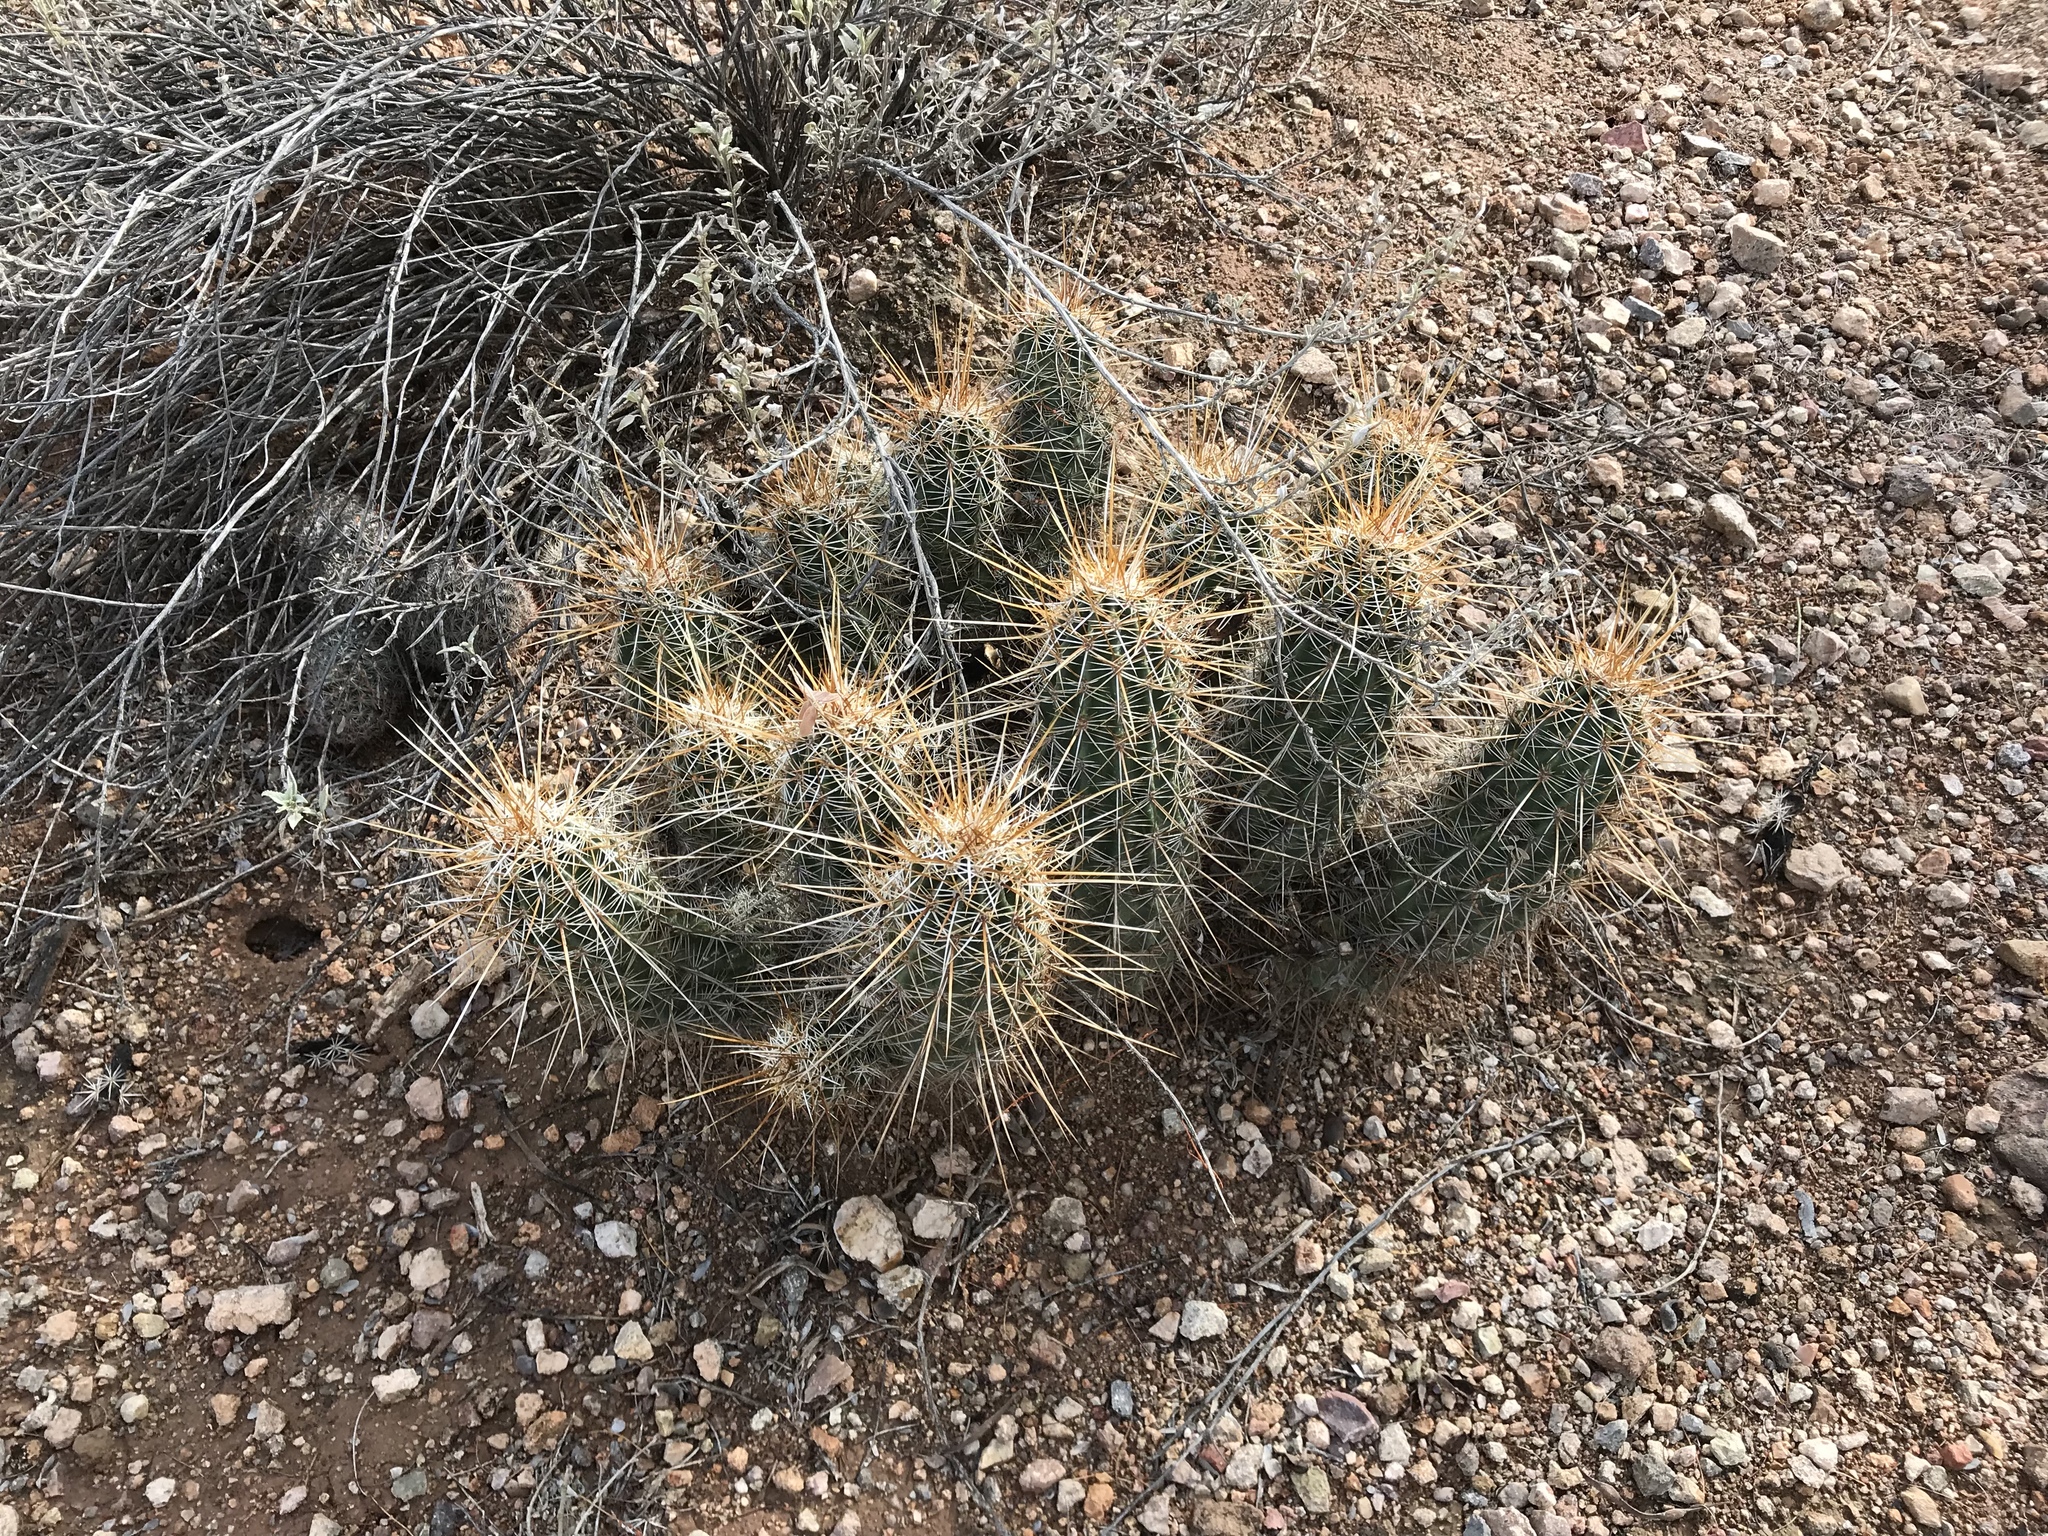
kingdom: Plantae
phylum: Tracheophyta
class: Magnoliopsida
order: Caryophyllales
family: Cactaceae
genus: Echinocereus
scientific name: Echinocereus engelmannii
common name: Engelmann's hedgehog cactus
